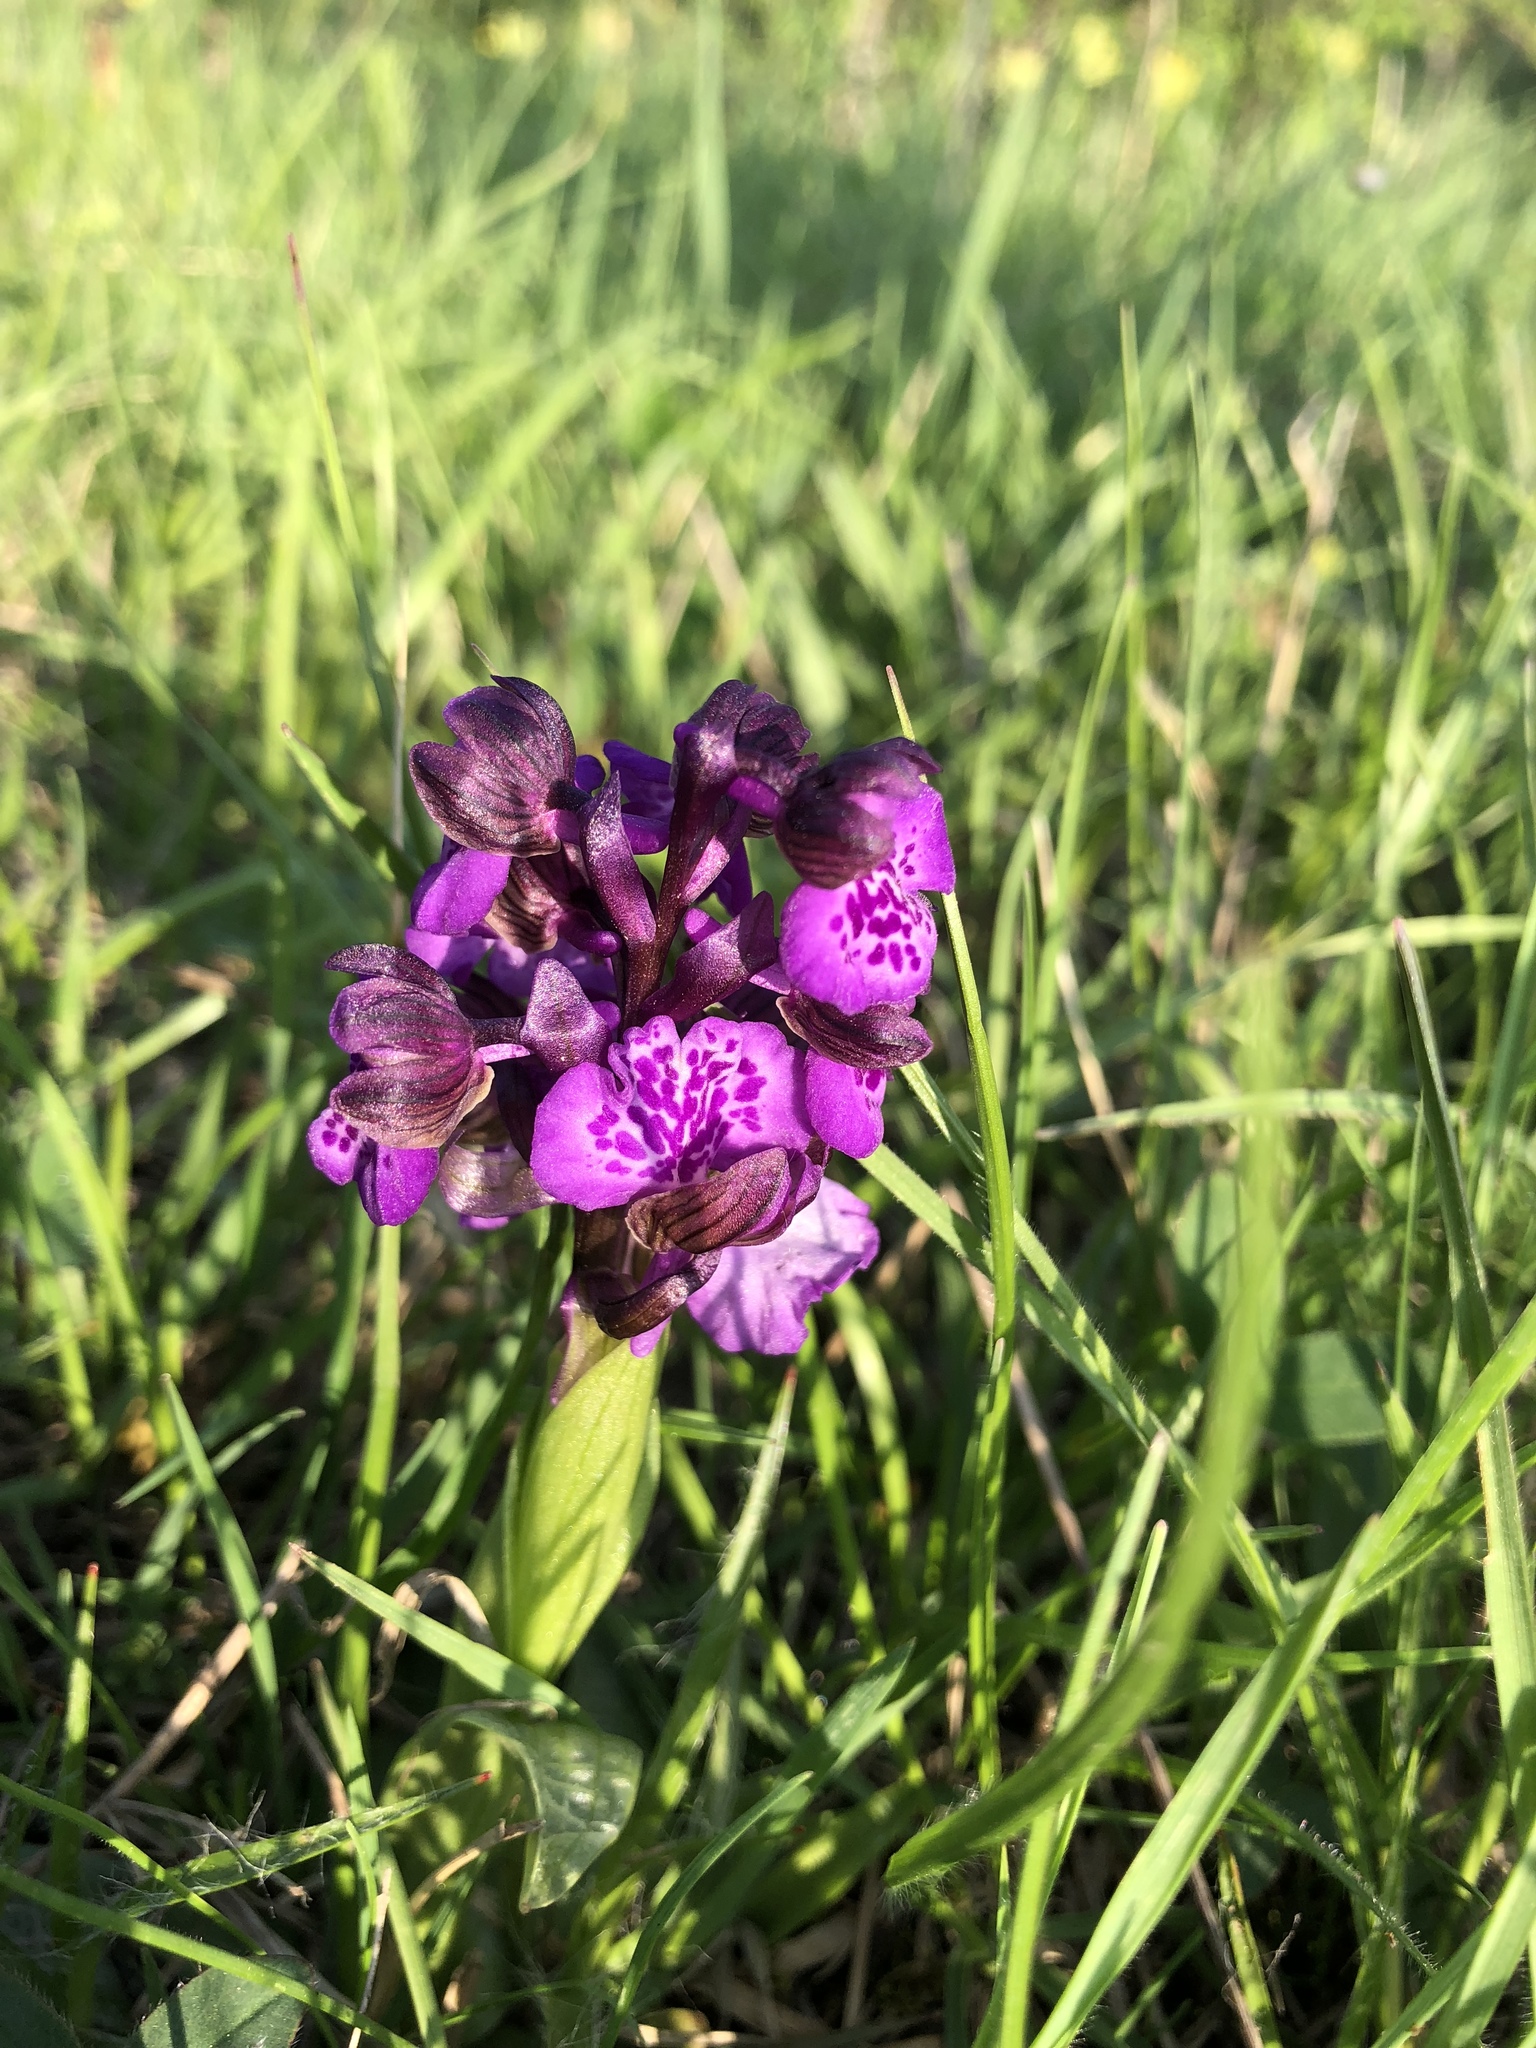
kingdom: Plantae
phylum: Tracheophyta
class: Liliopsida
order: Asparagales
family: Orchidaceae
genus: Anacamptis
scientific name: Anacamptis morio
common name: Green-winged orchid
